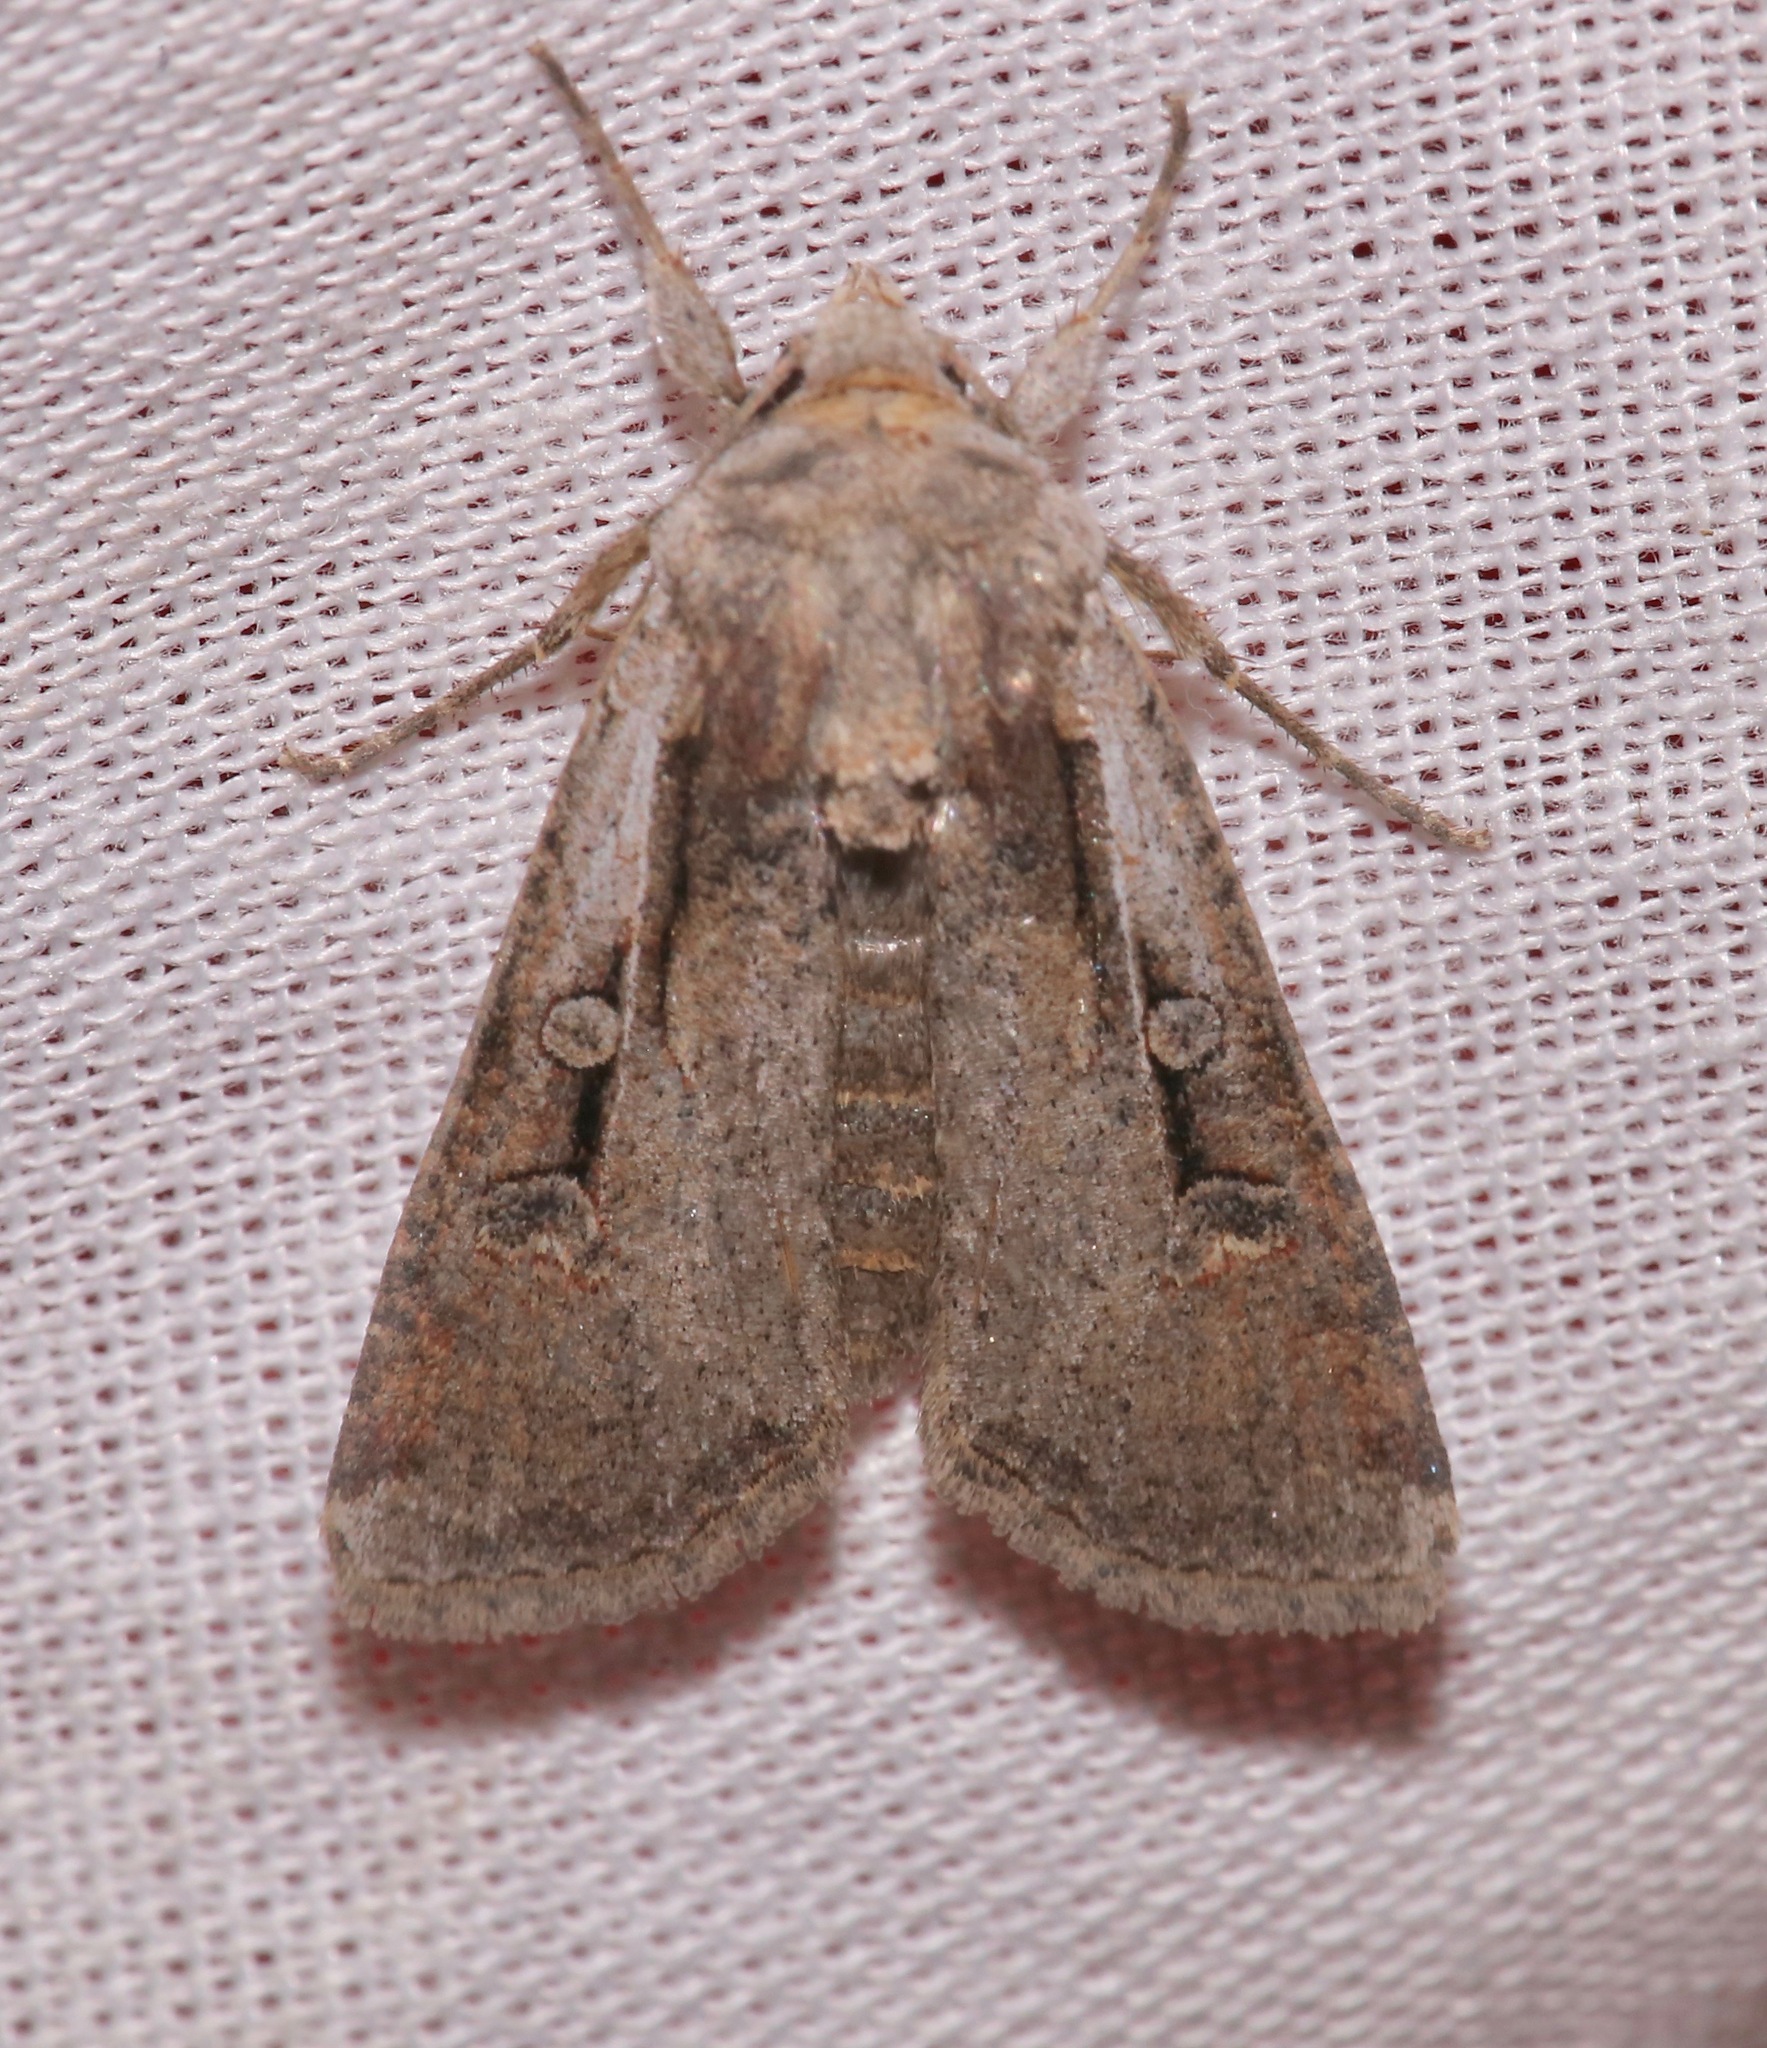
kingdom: Animalia
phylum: Arthropoda
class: Insecta
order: Lepidoptera
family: Noctuidae
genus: Hemieuxoa
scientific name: Hemieuxoa rudens
